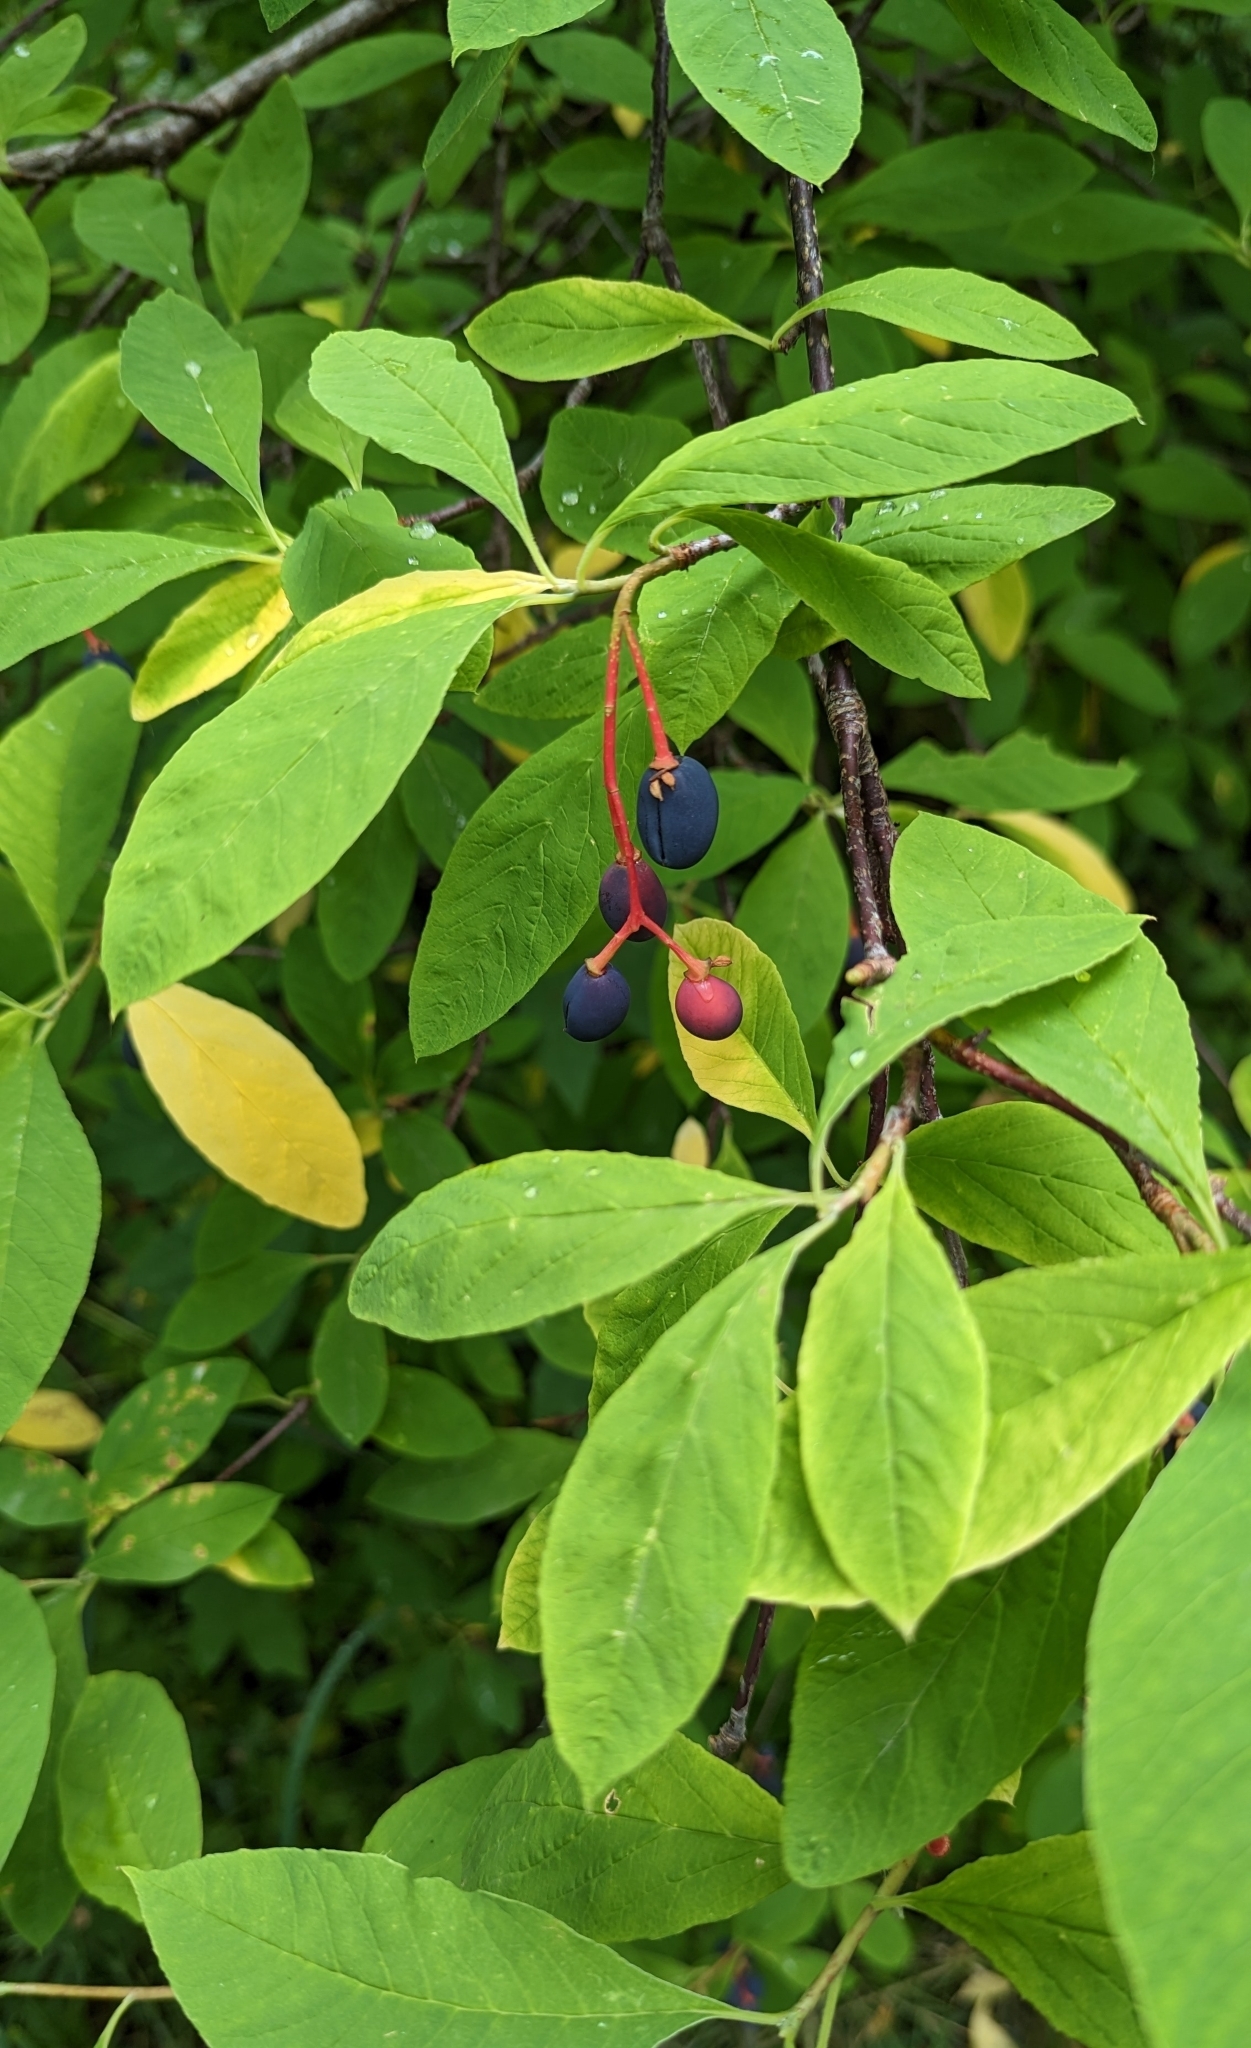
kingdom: Plantae
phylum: Tracheophyta
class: Magnoliopsida
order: Rosales
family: Rosaceae
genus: Oemleria
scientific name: Oemleria cerasiformis
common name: Osoberry
